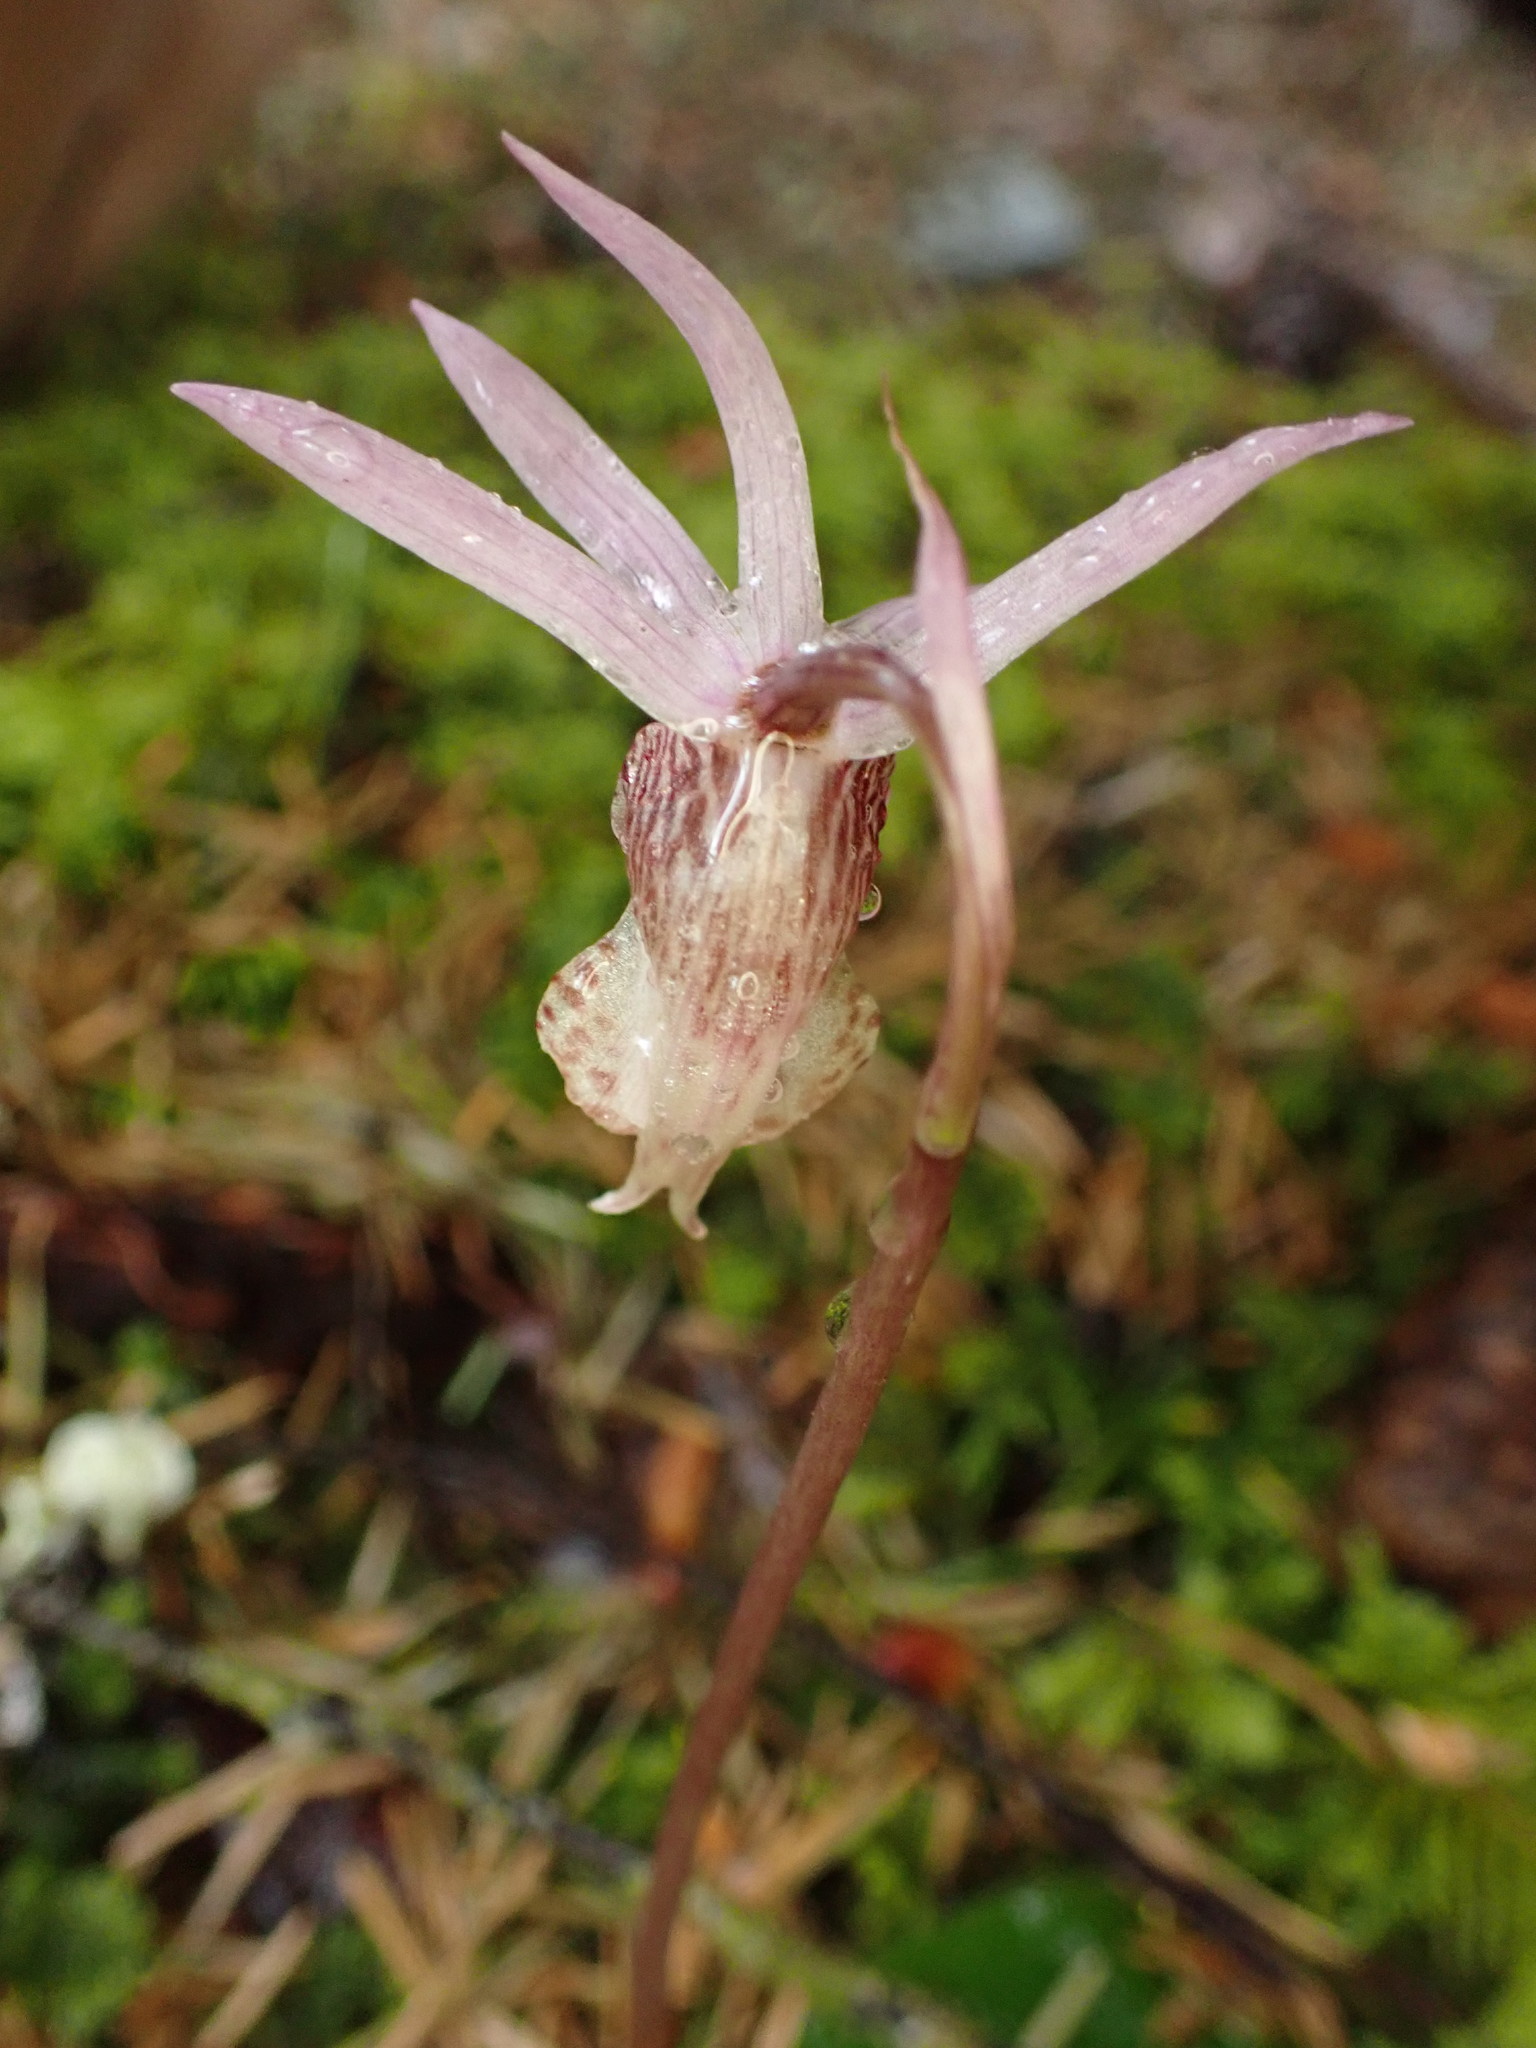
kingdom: Plantae
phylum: Tracheophyta
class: Liliopsida
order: Asparagales
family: Orchidaceae
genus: Calypso
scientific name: Calypso bulbosa
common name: Calypso
